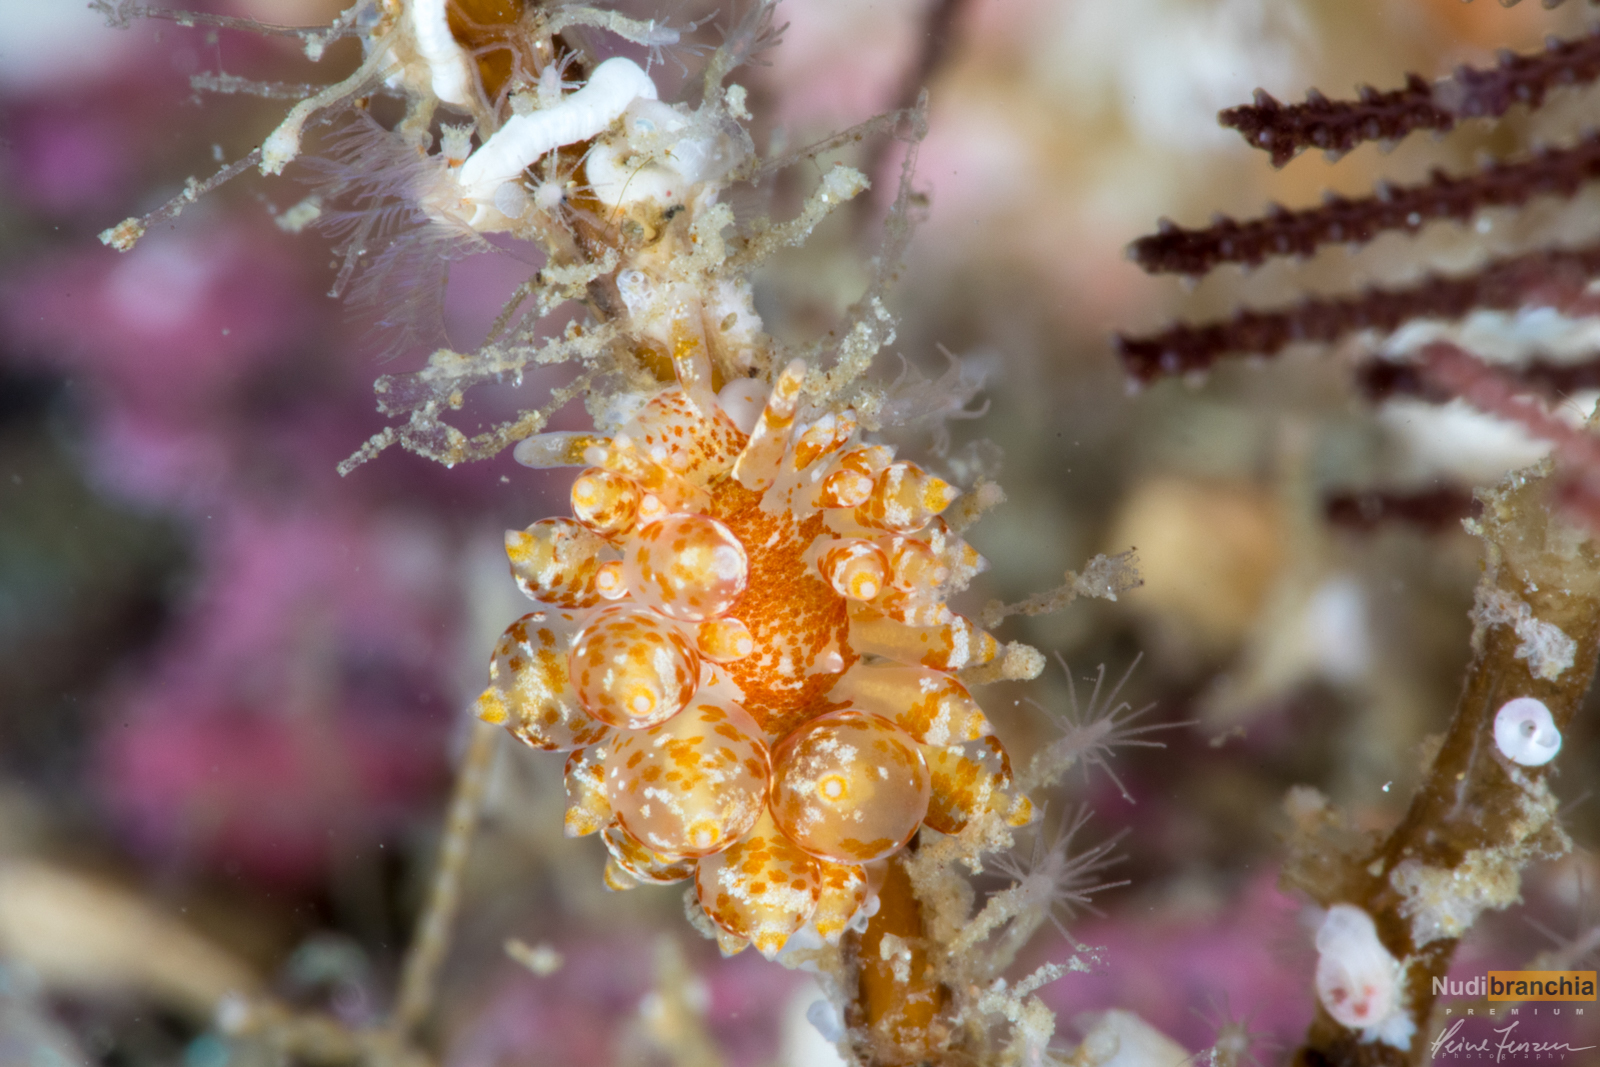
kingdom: Animalia
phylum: Mollusca
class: Gastropoda
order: Nudibranchia
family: Eubranchidae
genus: Amphorina
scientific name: Amphorina pallida
